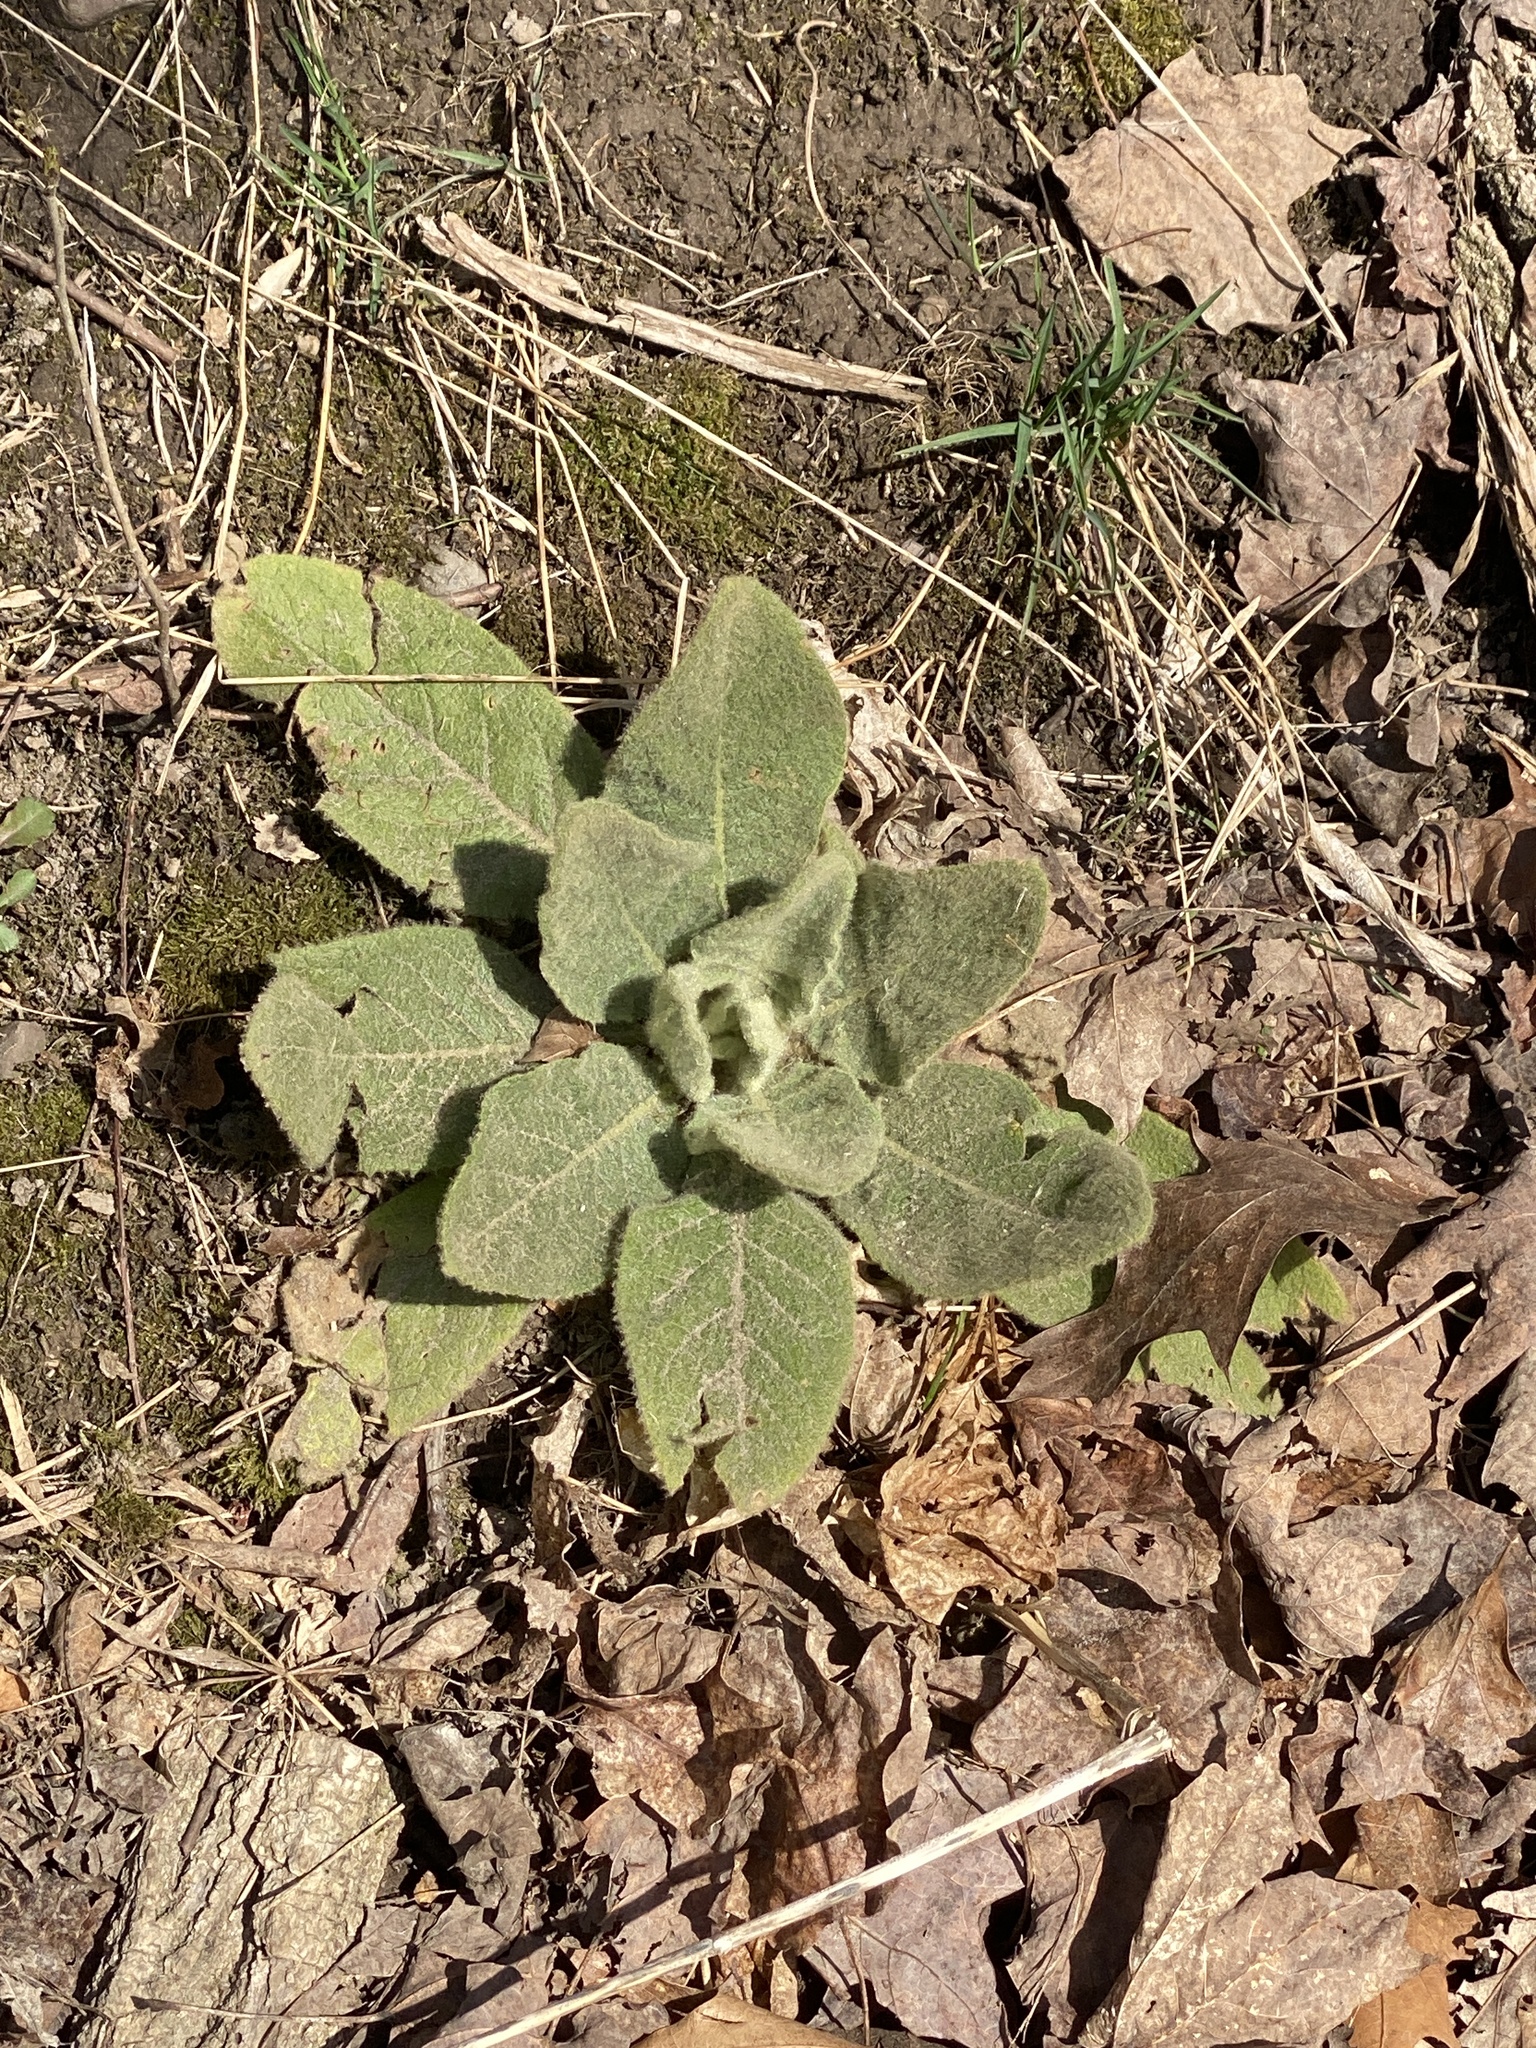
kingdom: Plantae
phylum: Tracheophyta
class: Magnoliopsida
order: Lamiales
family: Scrophulariaceae
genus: Verbascum
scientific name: Verbascum thapsus
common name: Common mullein
